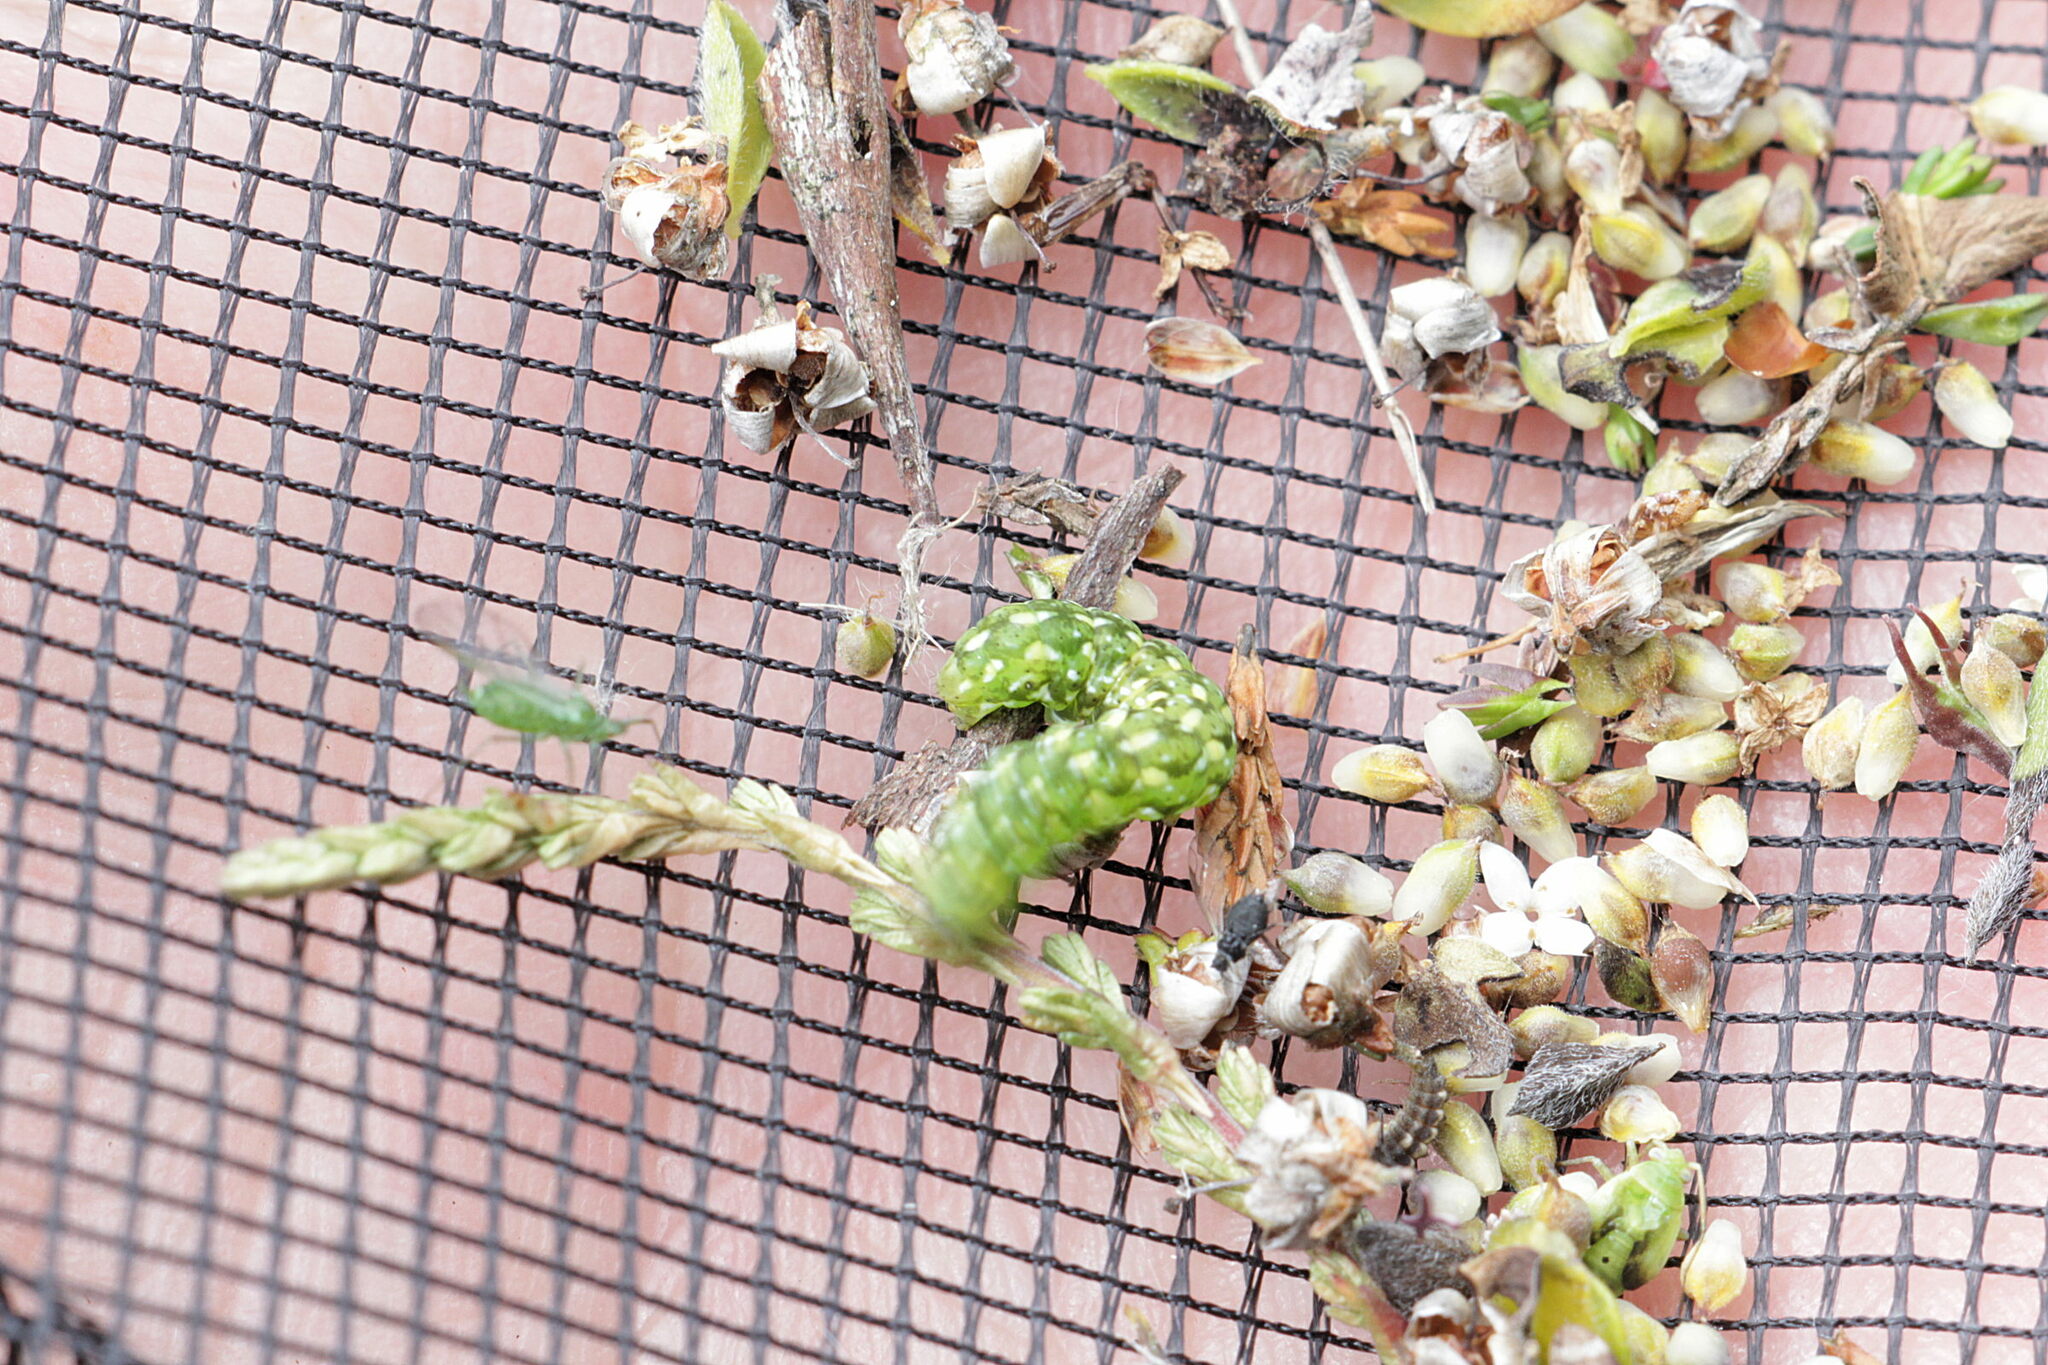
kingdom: Animalia
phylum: Arthropoda
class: Insecta
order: Lepidoptera
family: Noctuidae
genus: Anarta
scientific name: Anarta myrtilli
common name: Beautiful yellow underwing
